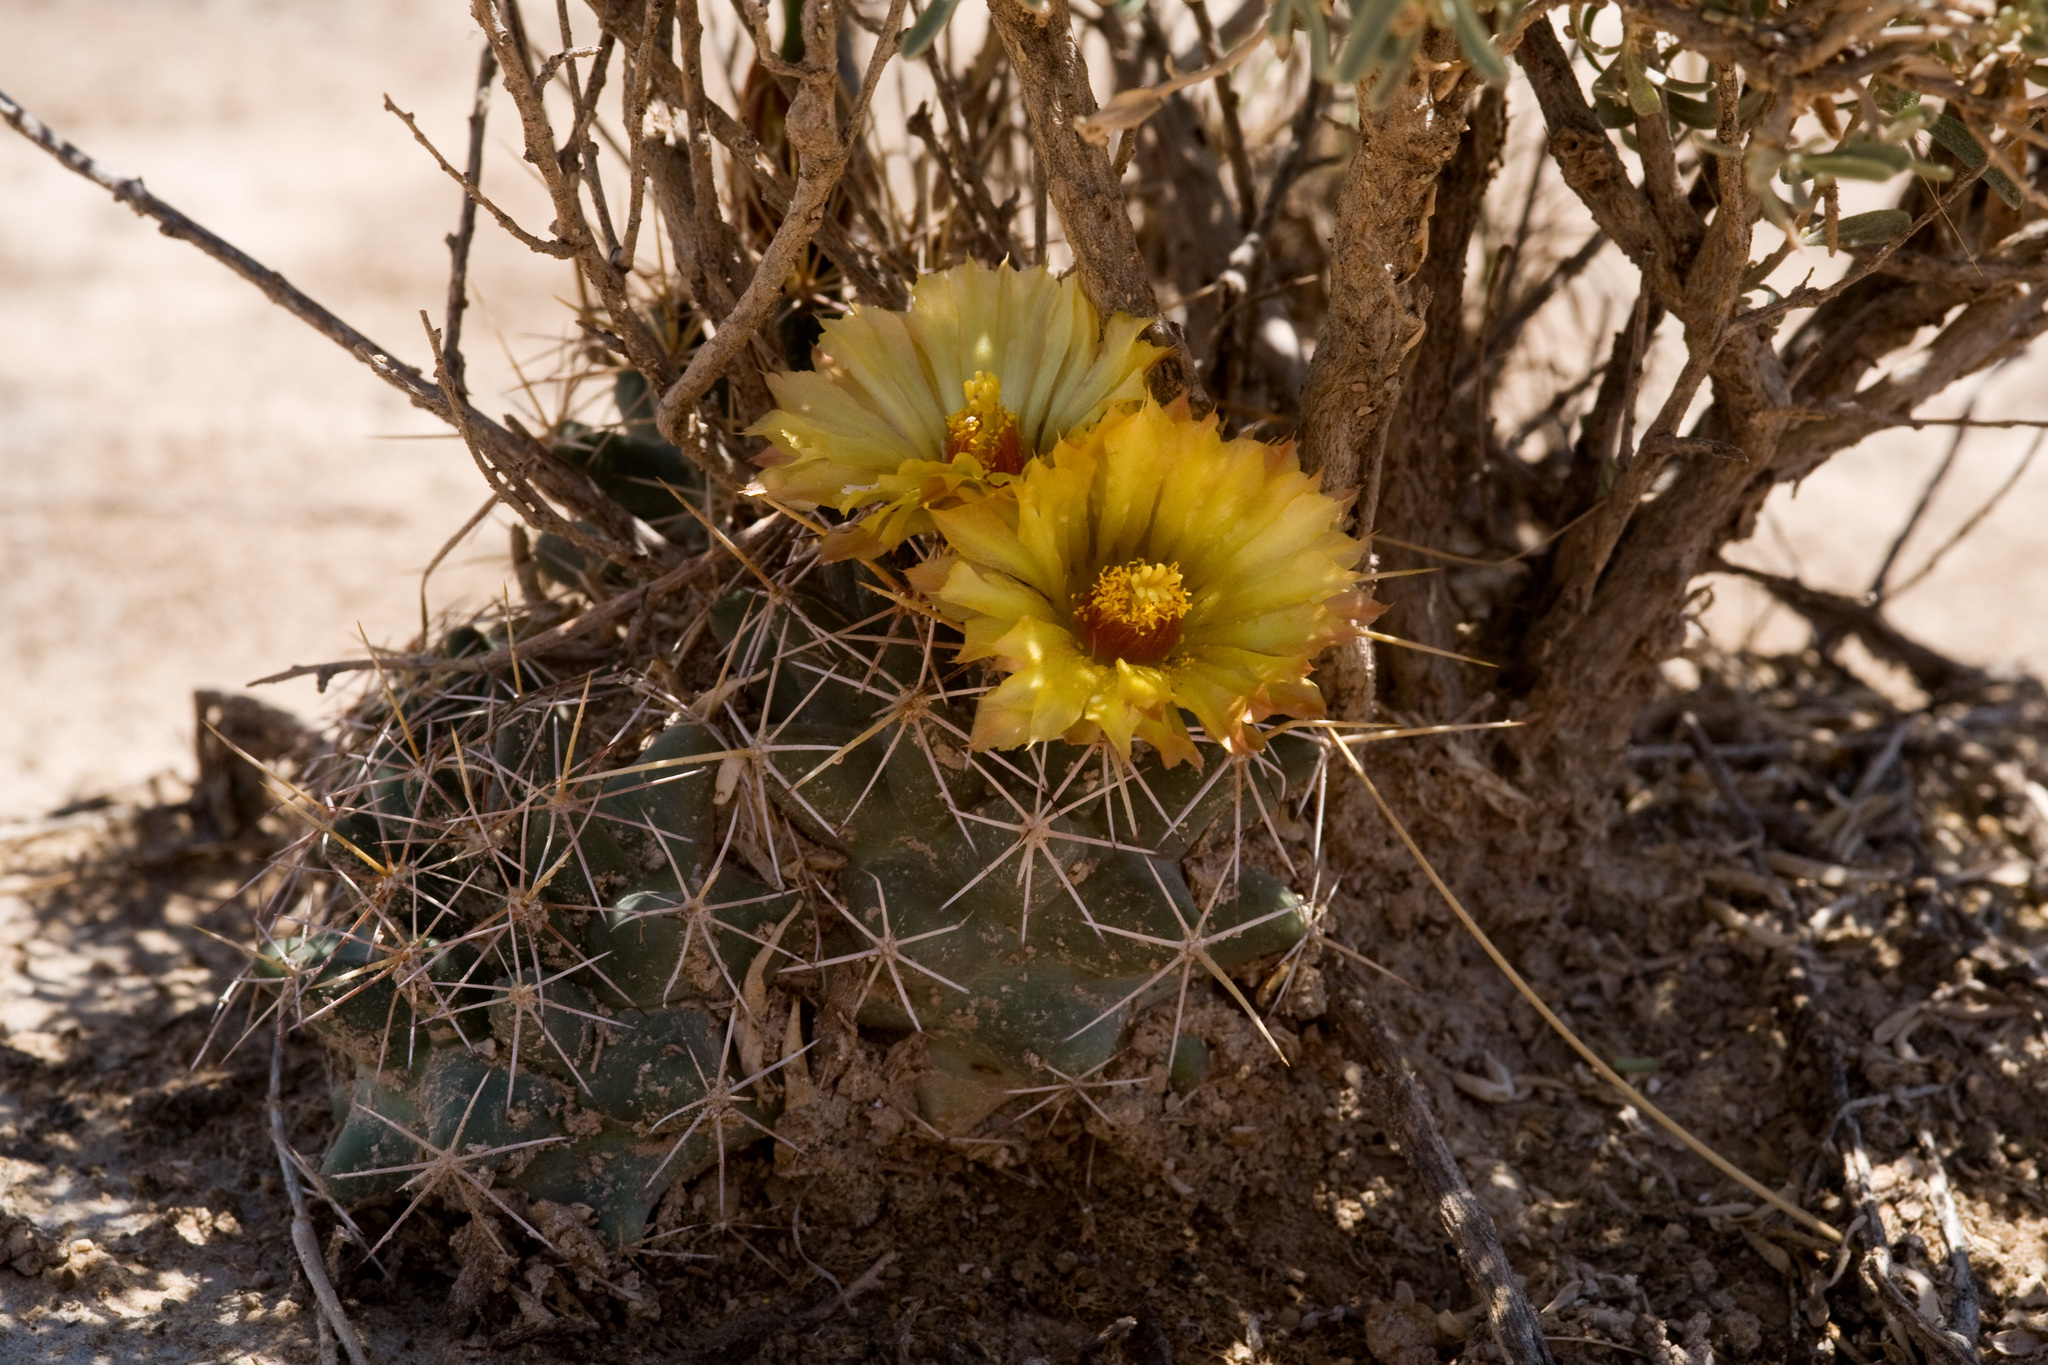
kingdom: Plantae
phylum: Tracheophyta
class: Magnoliopsida
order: Caryophyllales
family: Cactaceae
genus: Coryphantha
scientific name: Coryphantha robustispina
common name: Pima pineapple cactus
